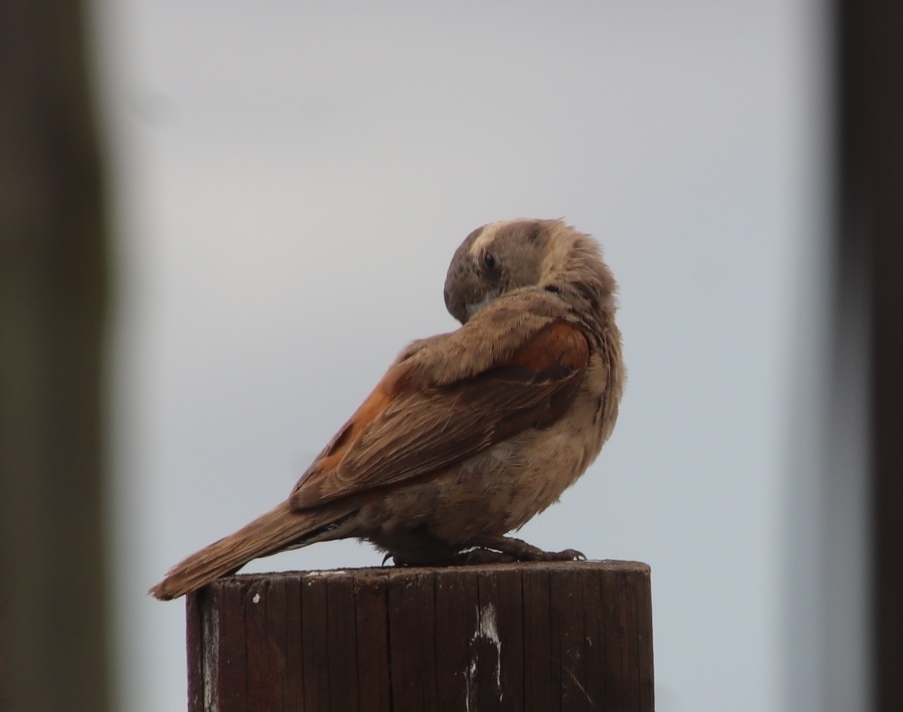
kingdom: Animalia
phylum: Chordata
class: Aves
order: Passeriformes
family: Passeridae
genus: Passer
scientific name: Passer melanurus
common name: Cape sparrow
